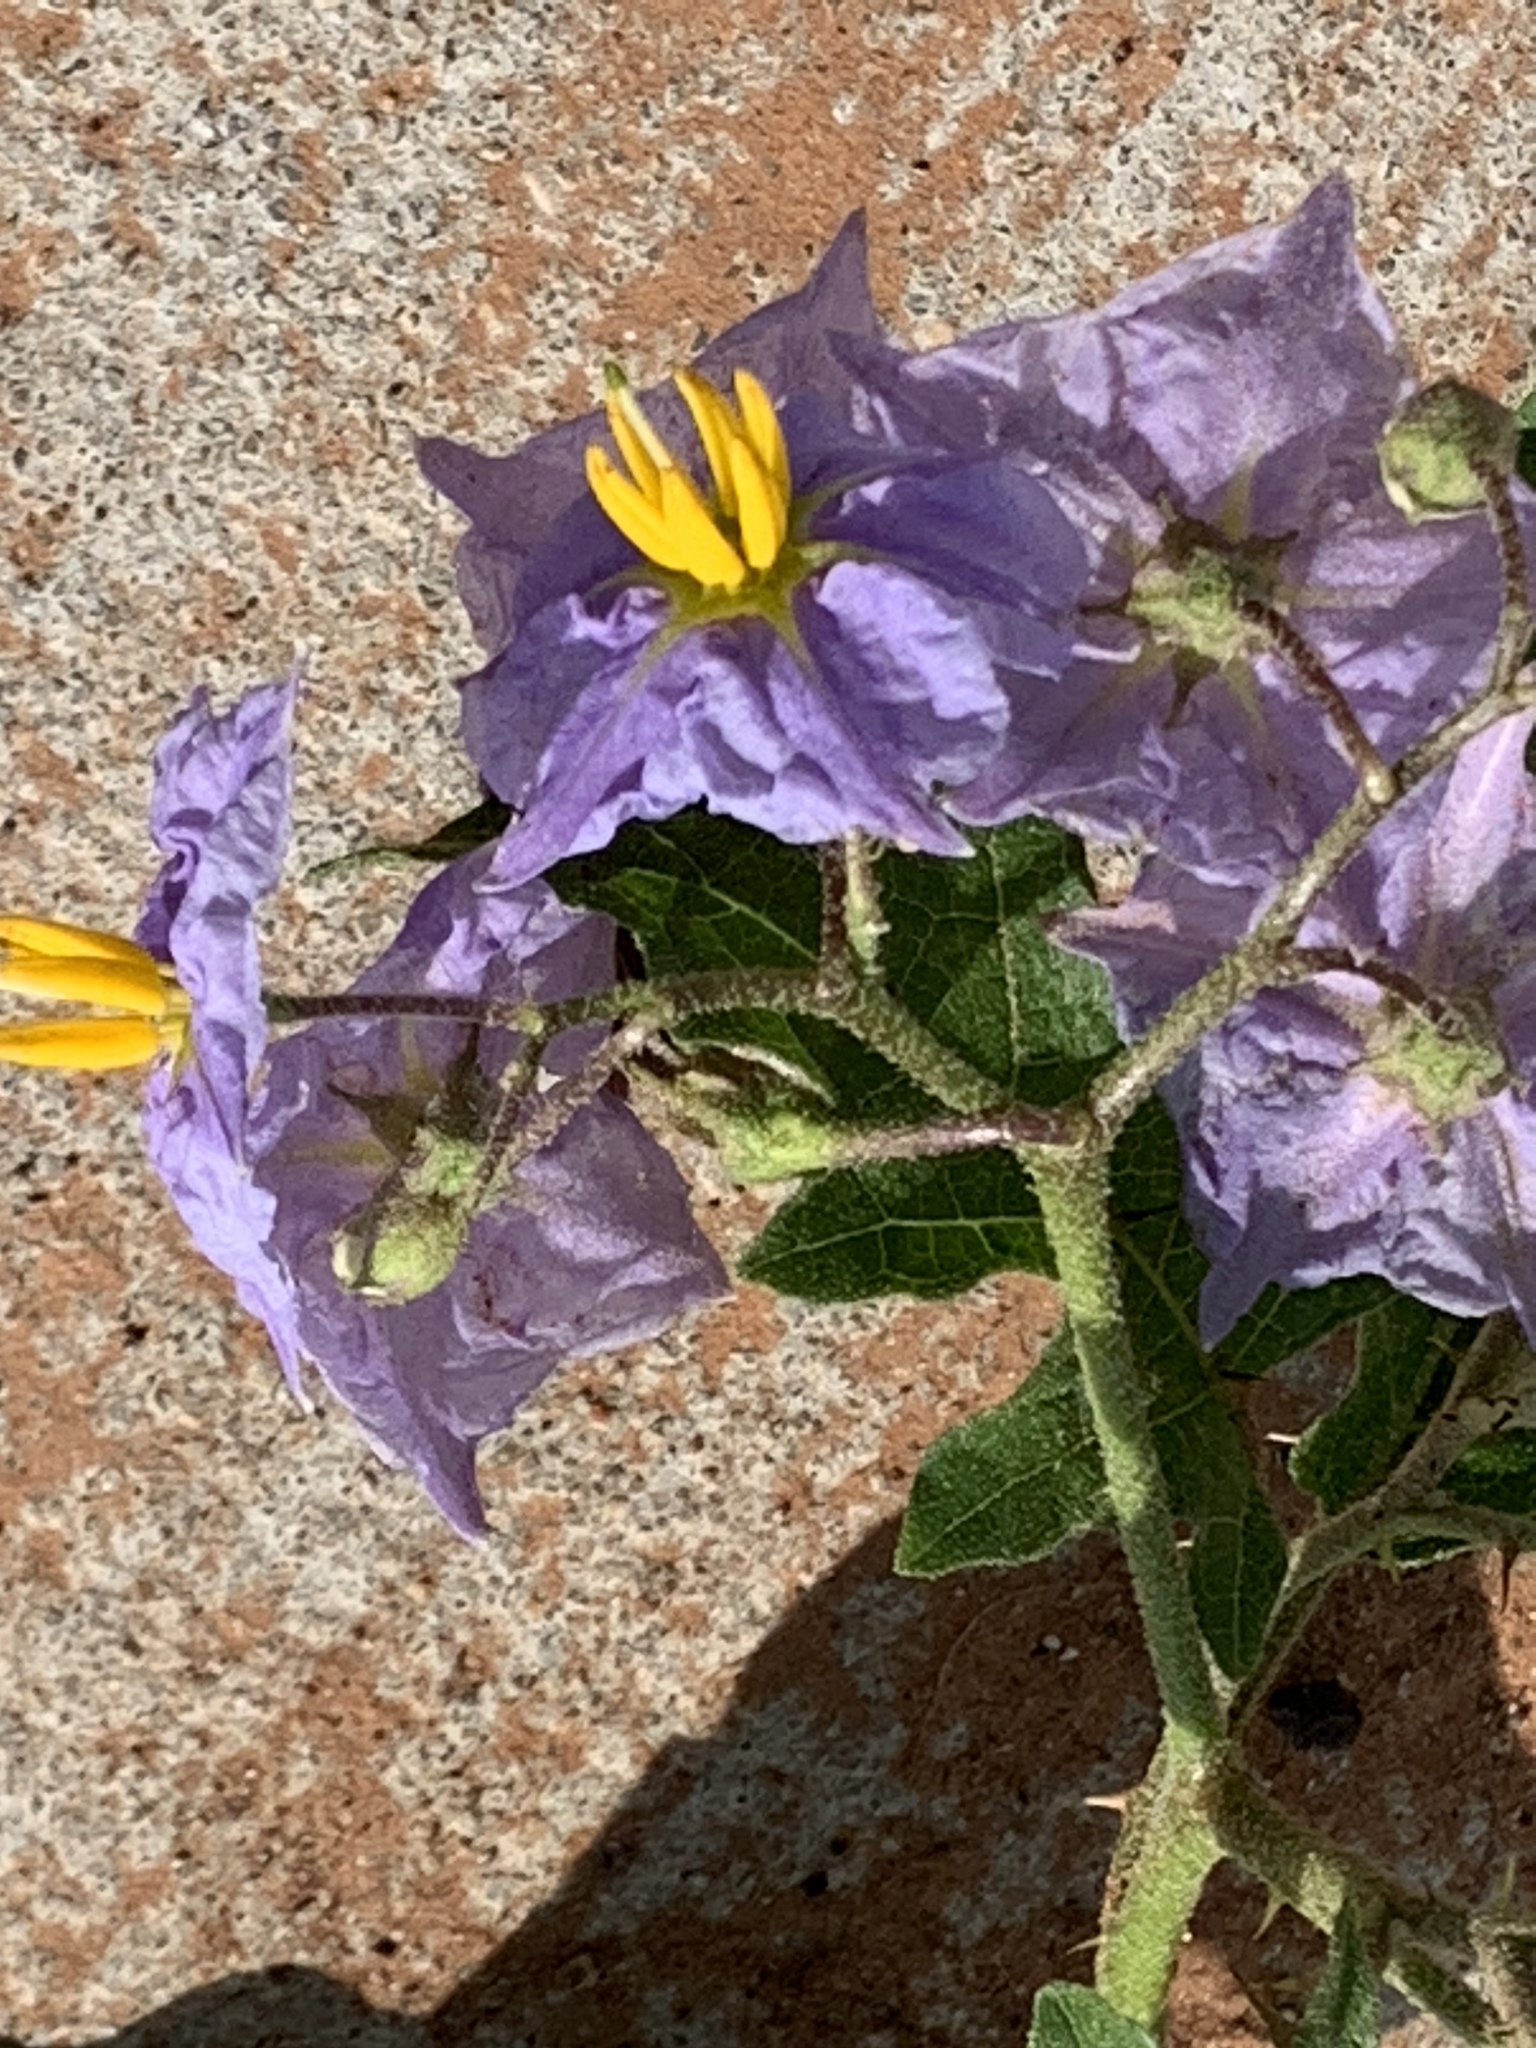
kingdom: Plantae
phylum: Tracheophyta
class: Magnoliopsida
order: Solanales
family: Solanaceae
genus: Solanum
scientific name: Solanum dimidiatum
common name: Carolina horse-nettle
